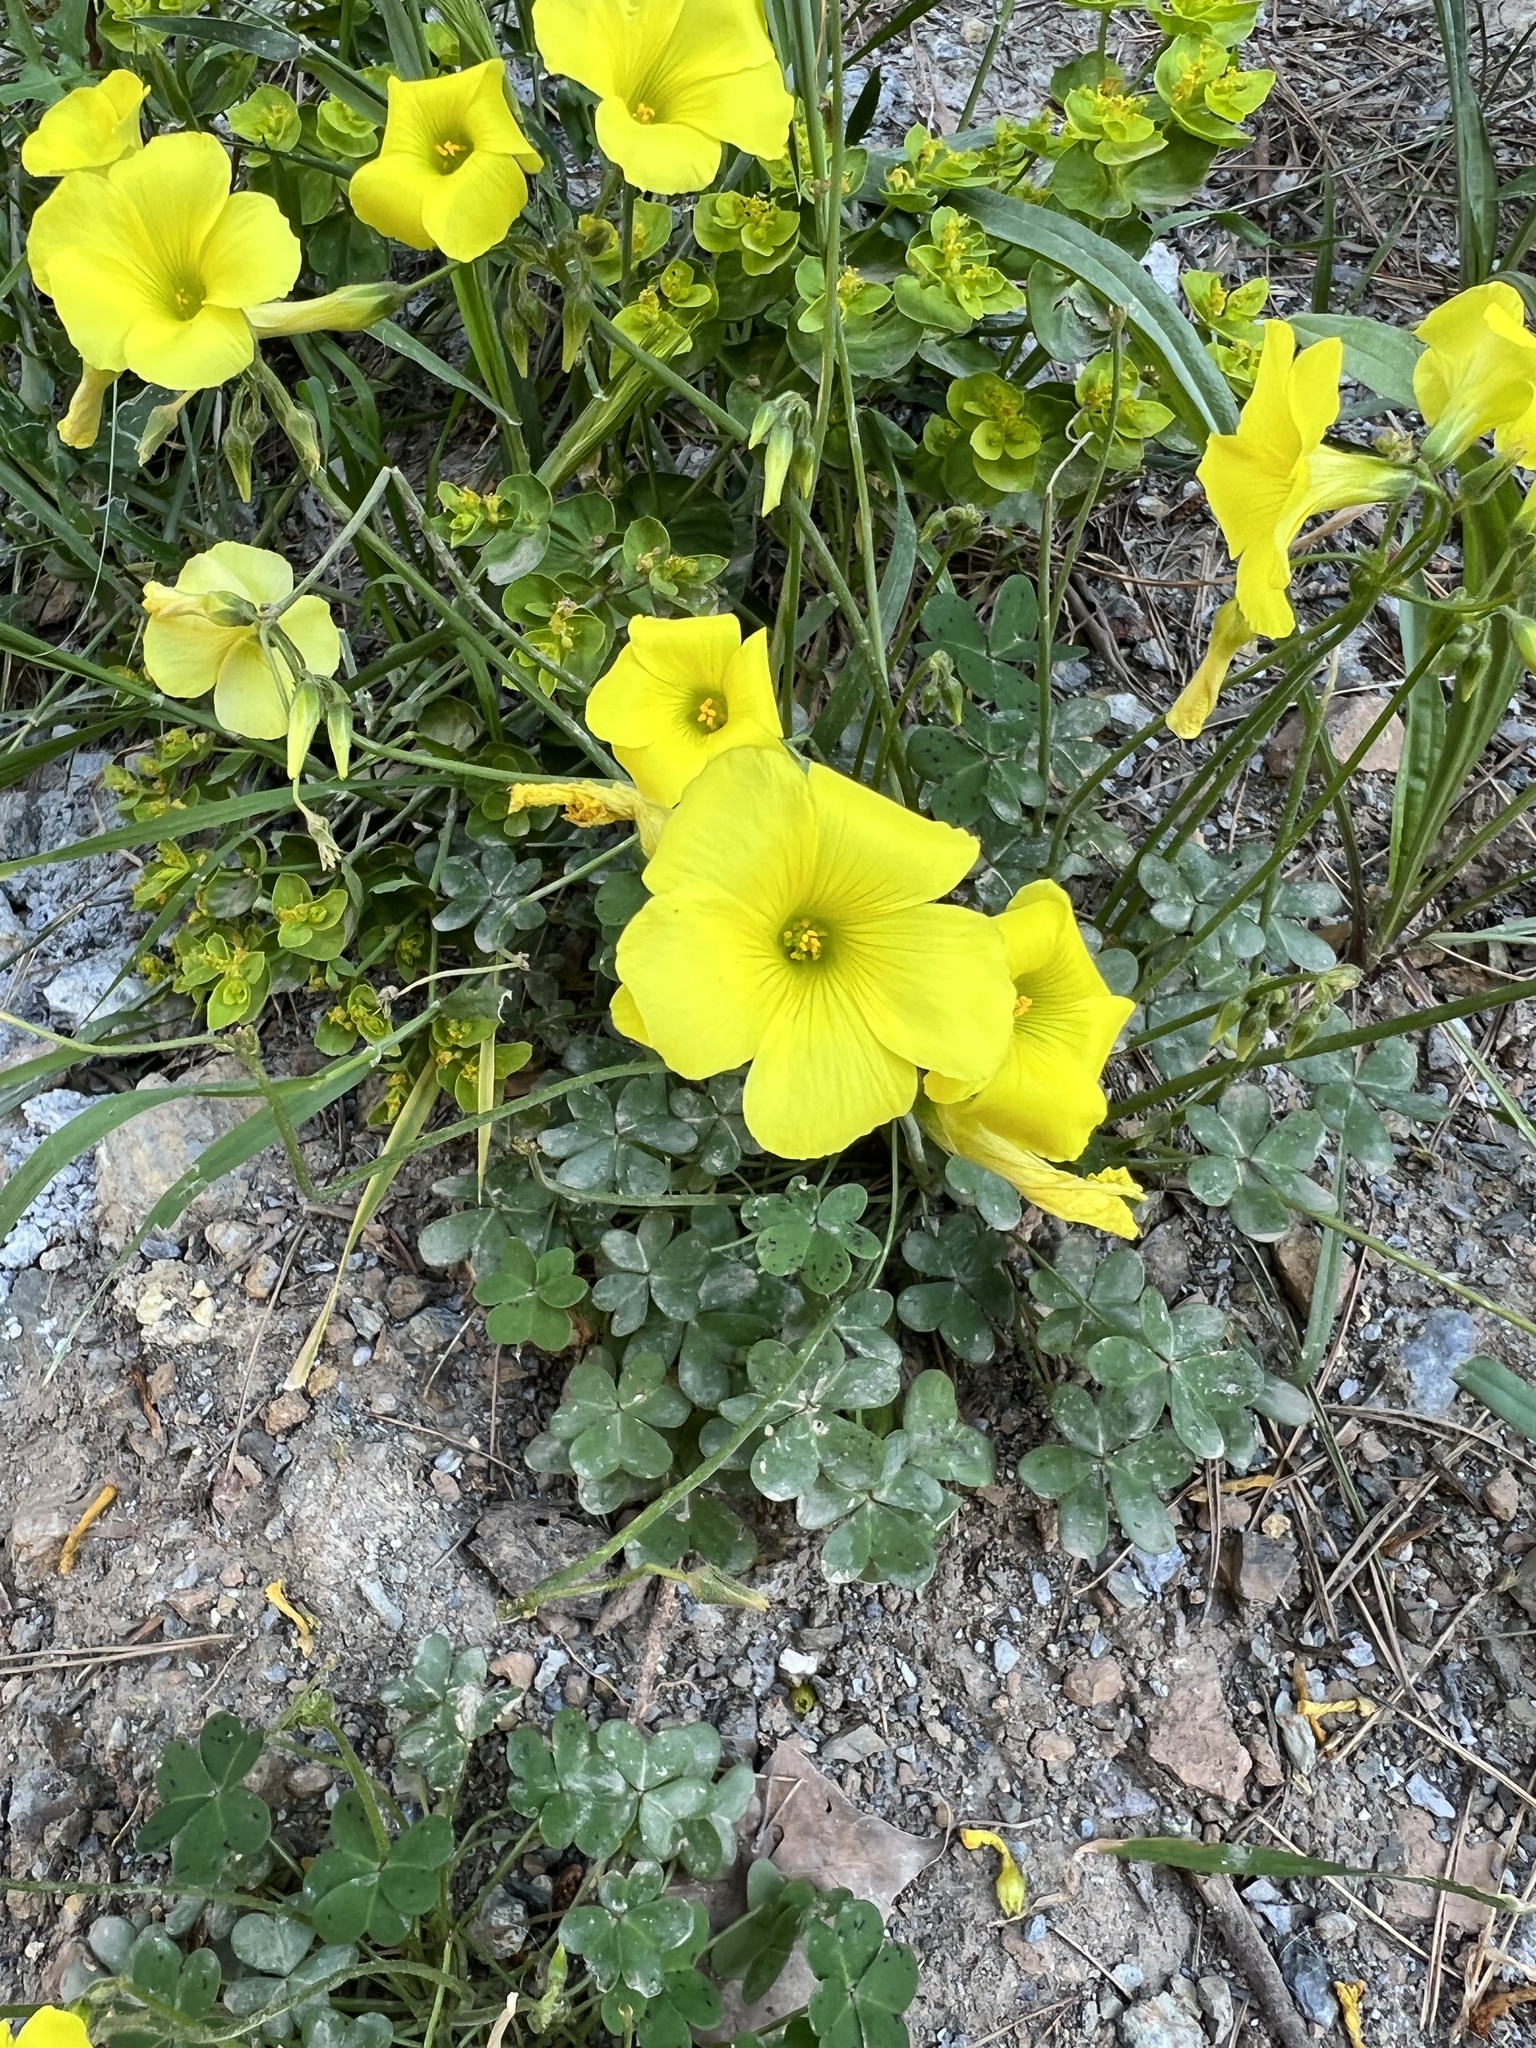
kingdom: Plantae
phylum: Tracheophyta
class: Magnoliopsida
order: Oxalidales
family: Oxalidaceae
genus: Oxalis
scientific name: Oxalis pes-caprae
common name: Bermuda-buttercup
